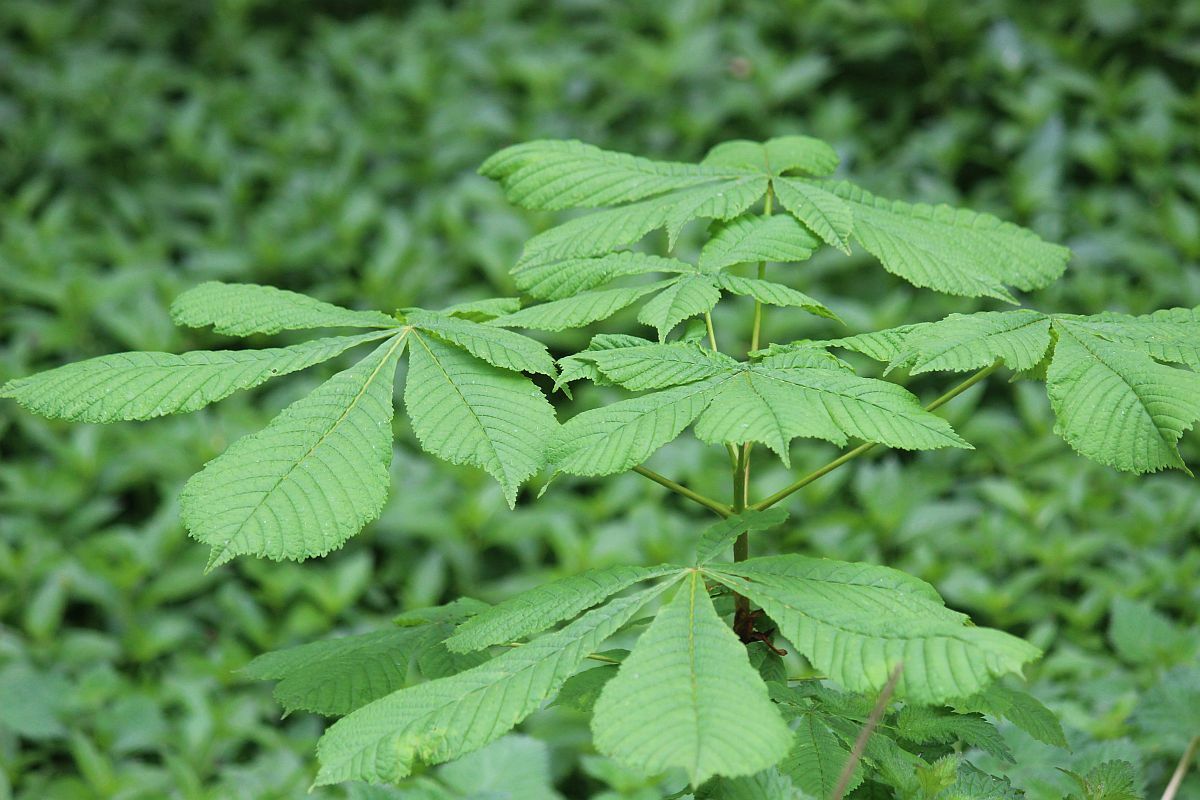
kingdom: Plantae
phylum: Tracheophyta
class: Magnoliopsida
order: Sapindales
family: Sapindaceae
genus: Aesculus
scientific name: Aesculus hippocastanum
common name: Horse-chestnut
